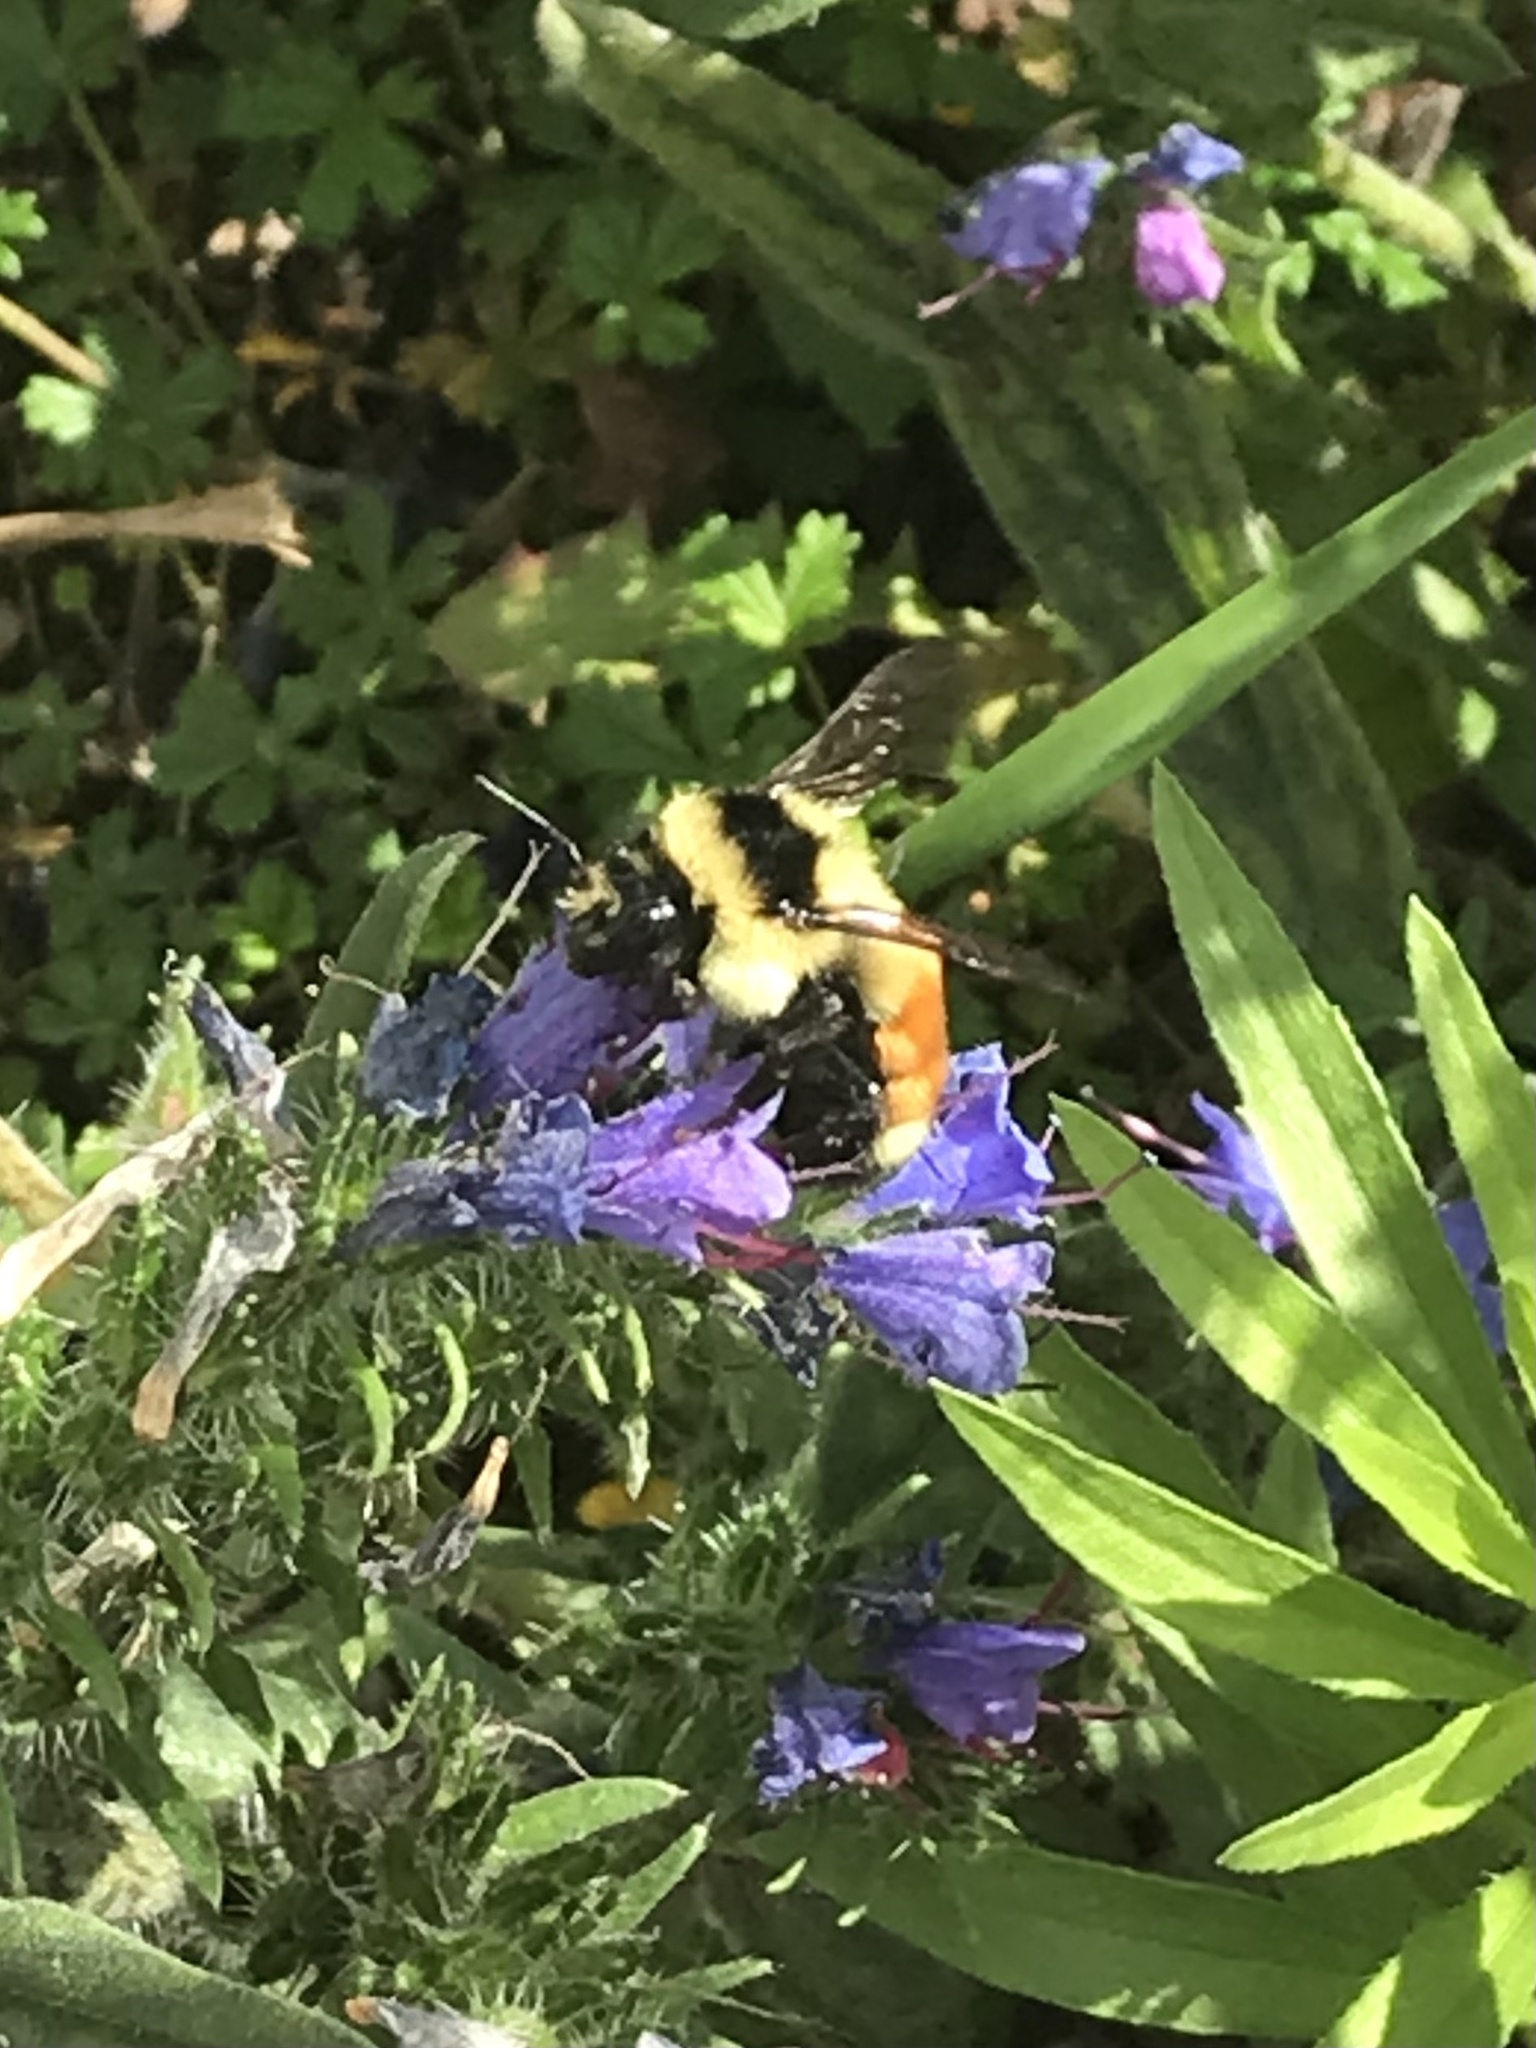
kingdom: Animalia
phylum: Arthropoda
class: Insecta
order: Hymenoptera
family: Apidae
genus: Bombus
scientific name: Bombus ternarius
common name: Tri-colored bumble bee
